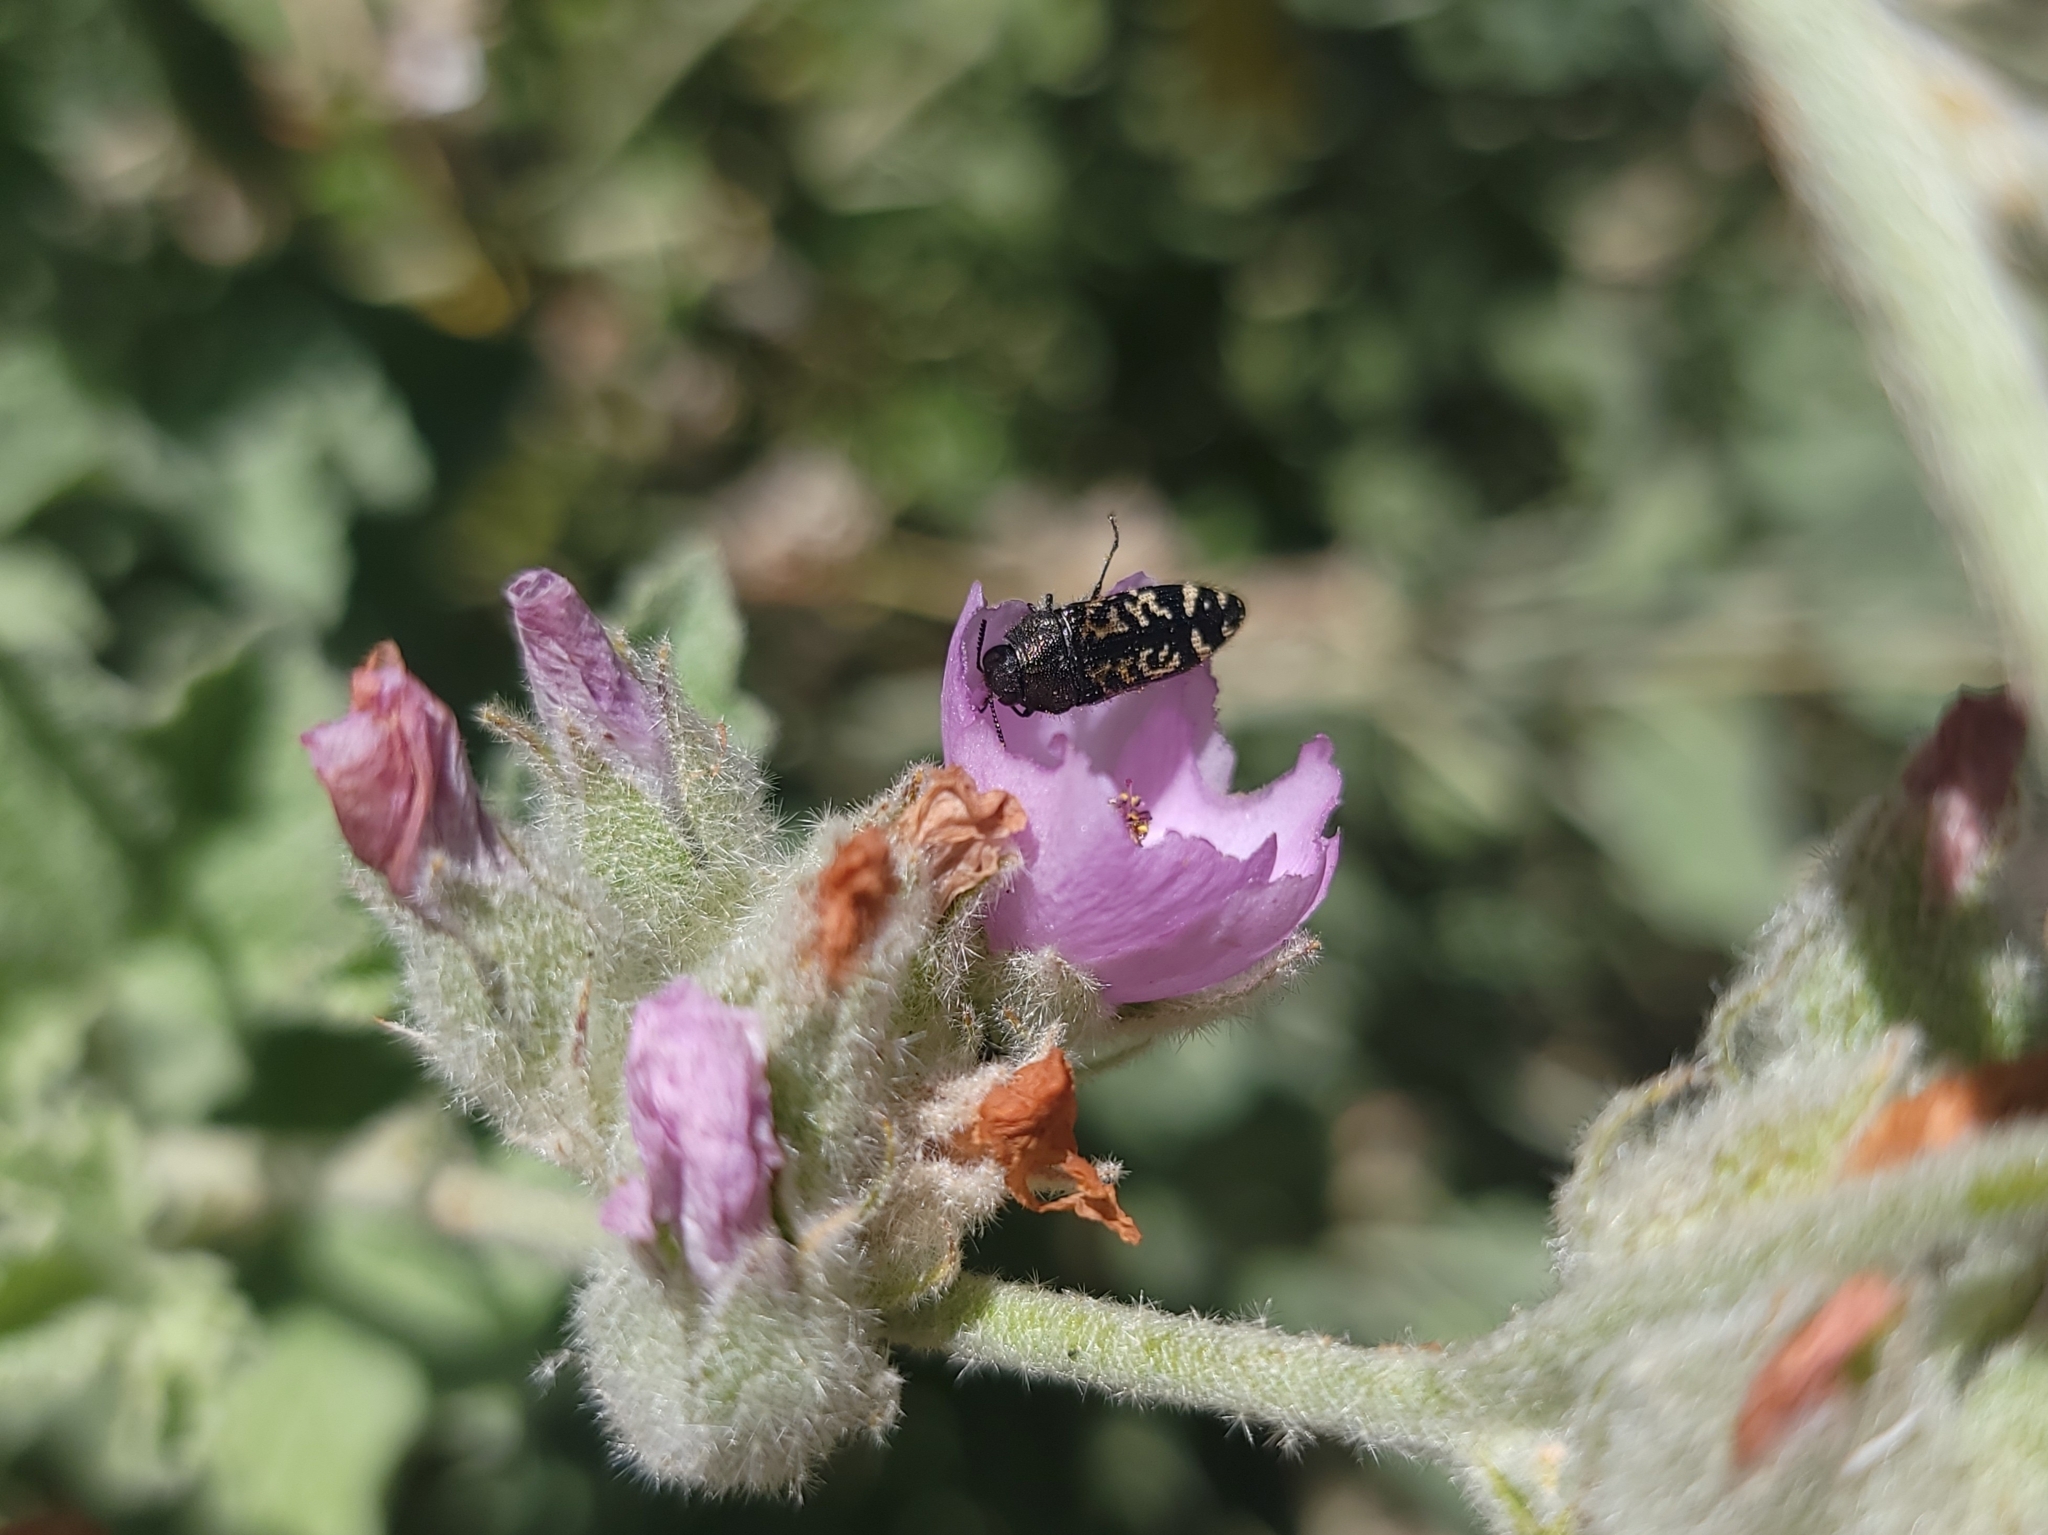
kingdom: Animalia
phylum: Arthropoda
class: Insecta
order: Coleoptera
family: Buprestidae
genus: Acmaeodera
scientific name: Acmaeodera connexa
